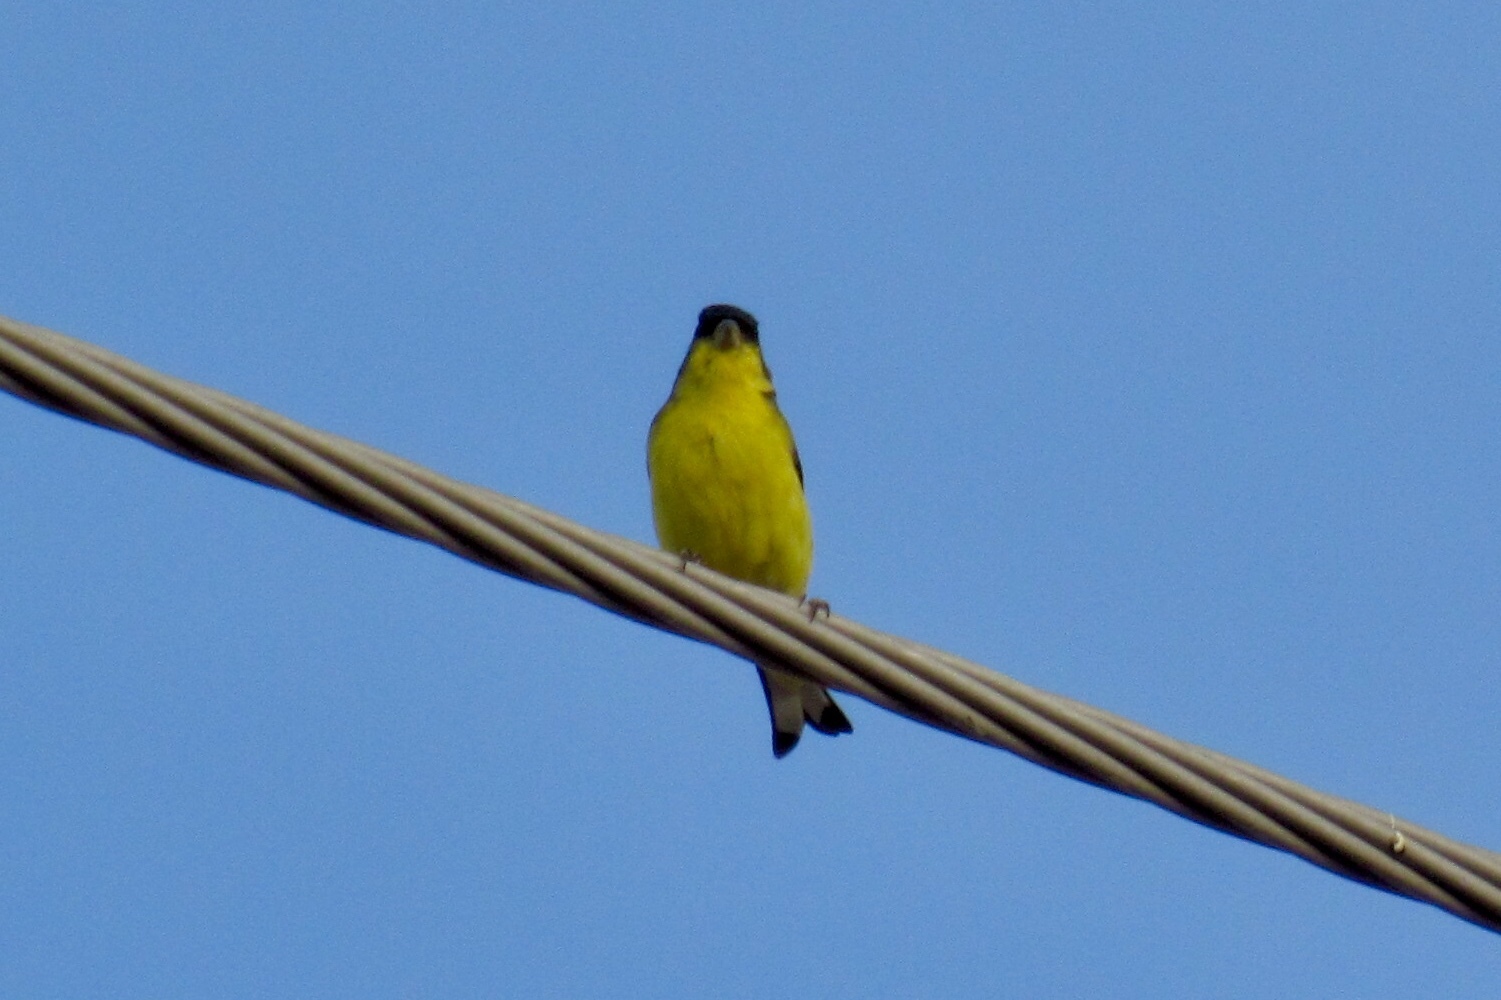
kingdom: Animalia
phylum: Chordata
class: Aves
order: Passeriformes
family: Fringillidae
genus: Spinus
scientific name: Spinus psaltria
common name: Lesser goldfinch
